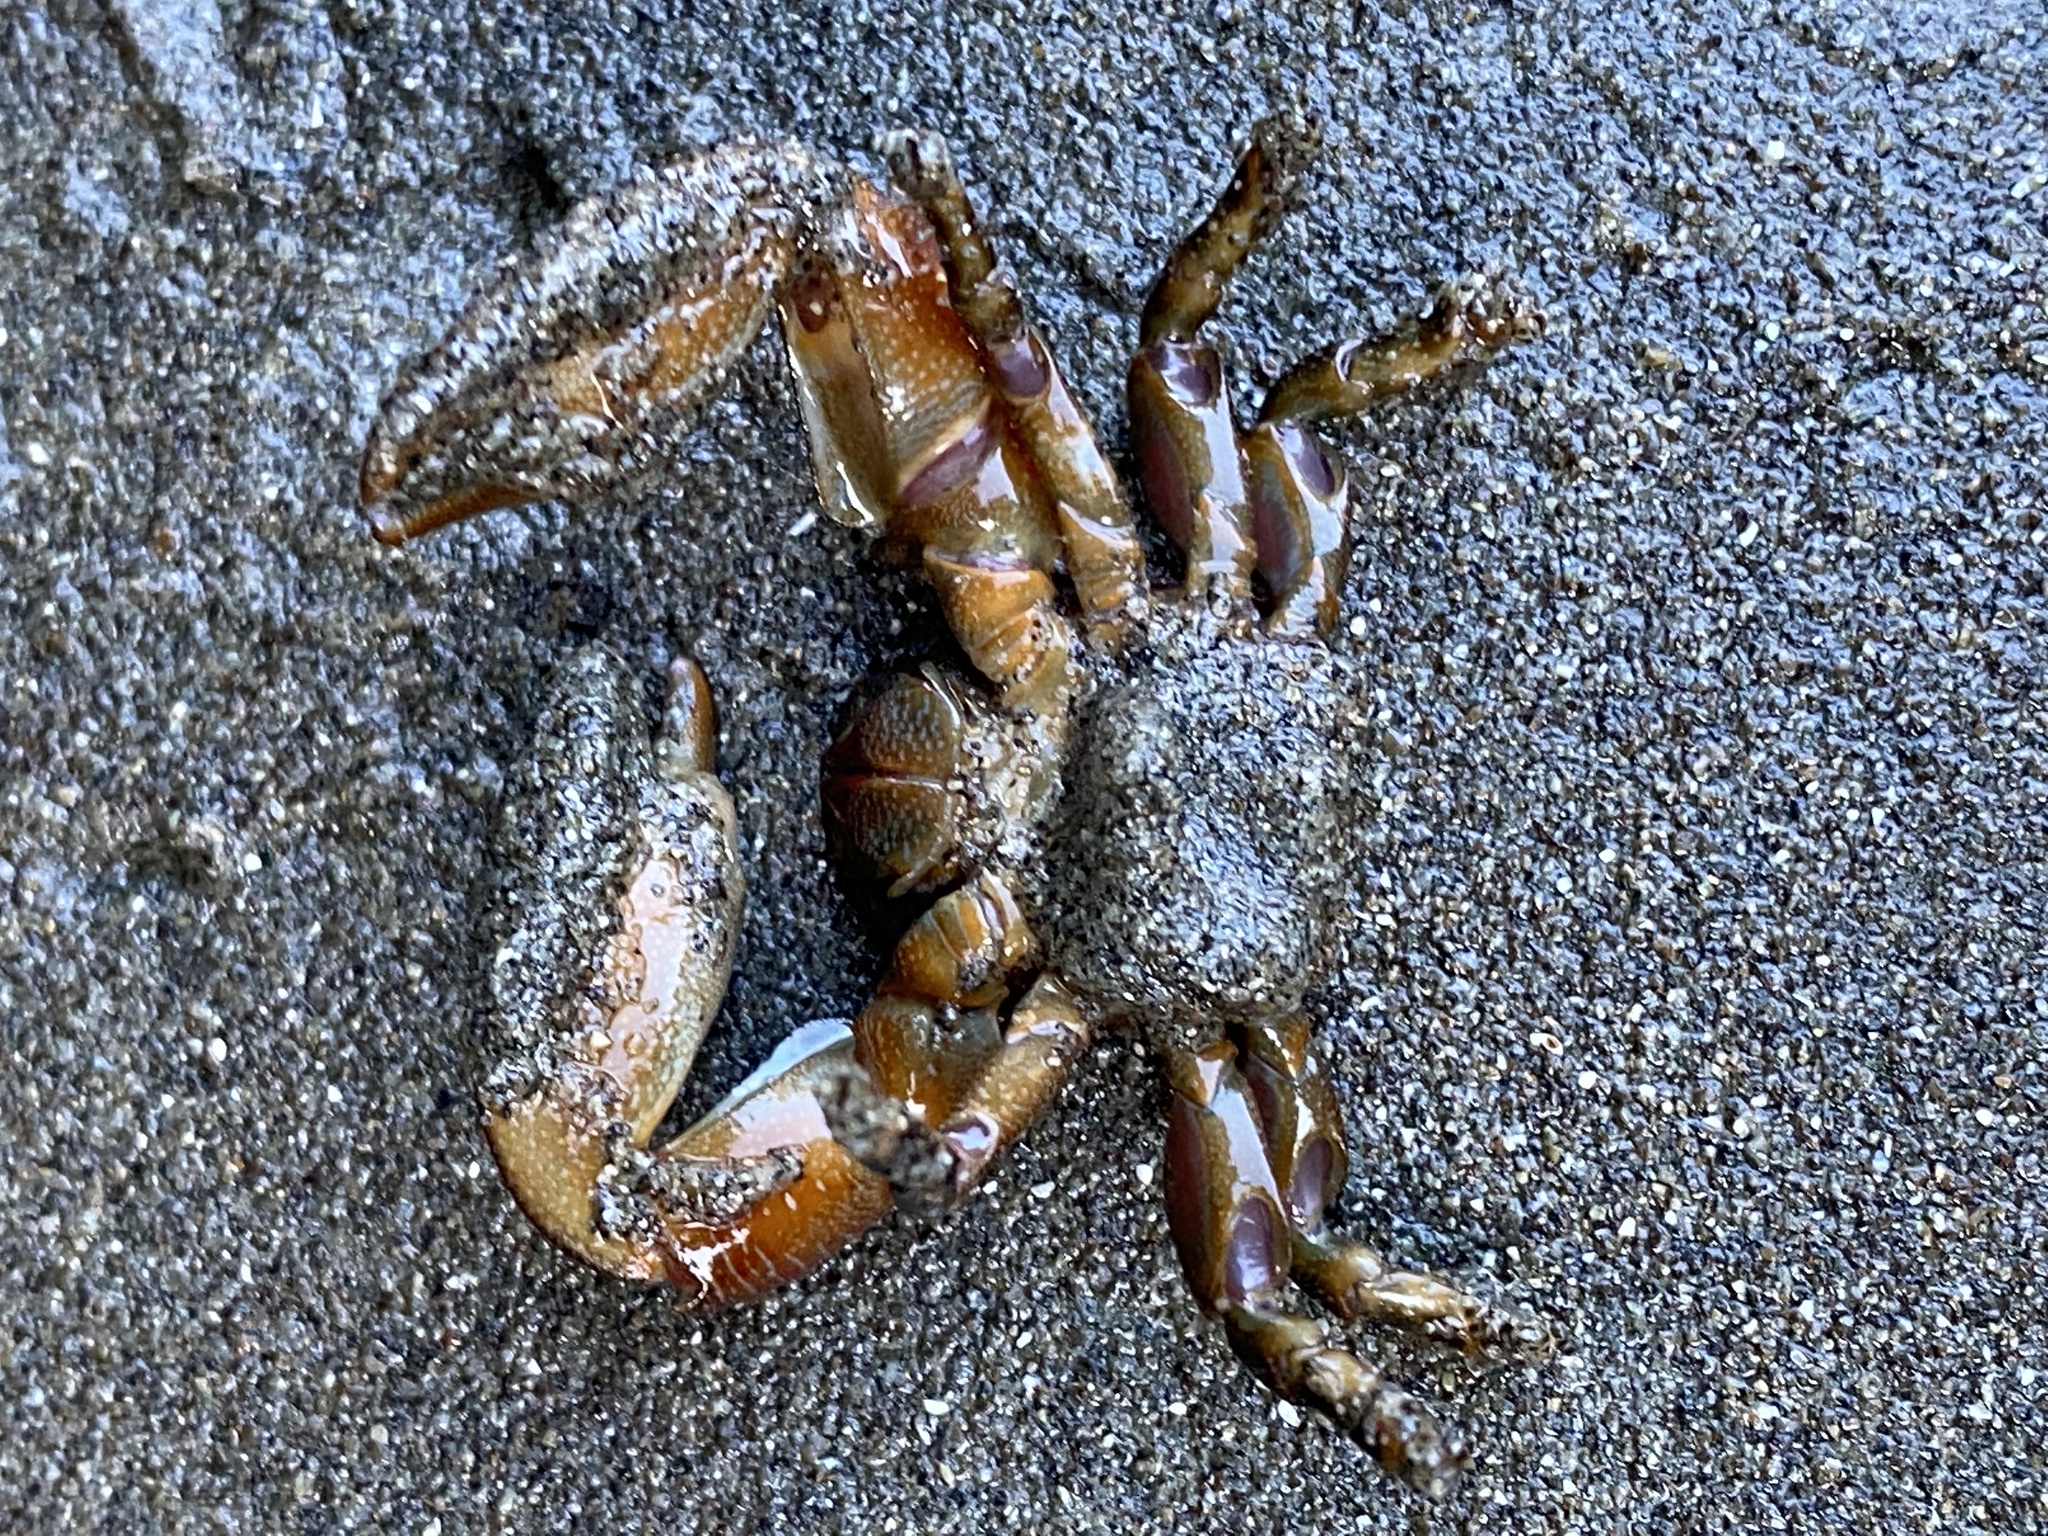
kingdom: Animalia
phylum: Arthropoda
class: Malacostraca
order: Decapoda
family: Porcellanidae
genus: Petrolisthes
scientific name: Petrolisthes cinctipes
